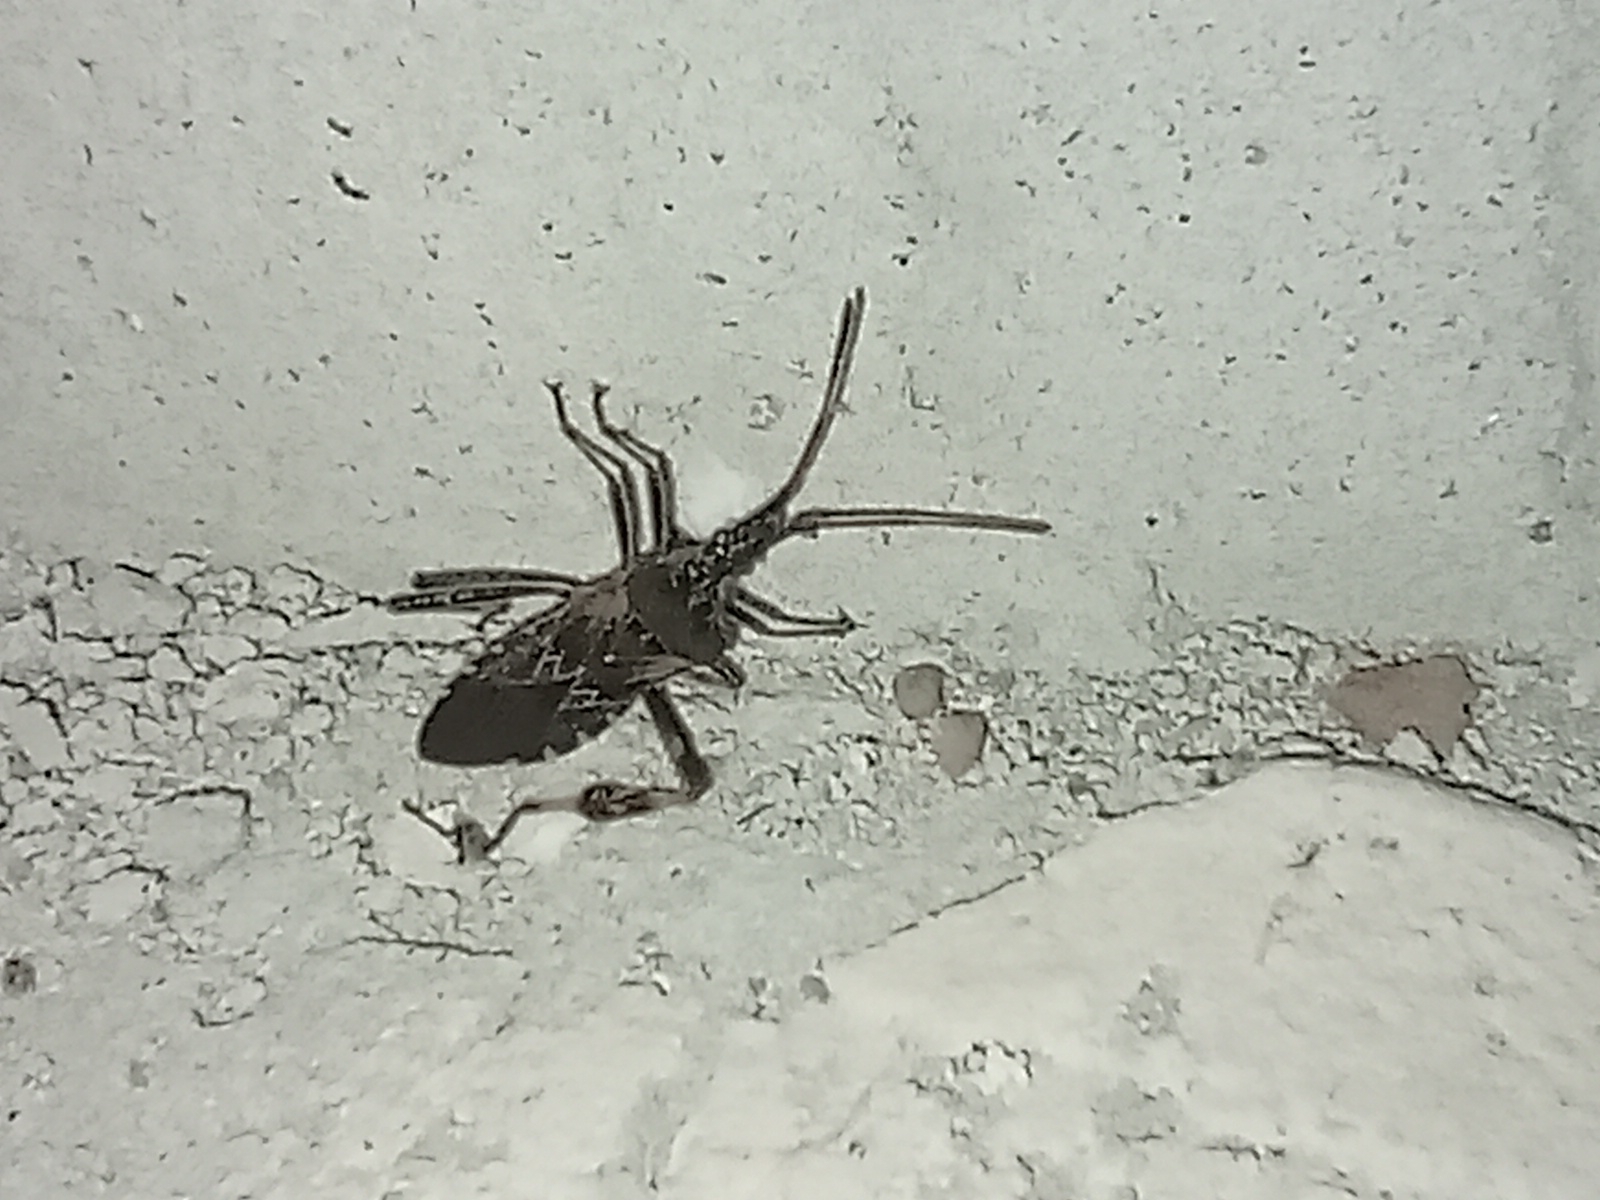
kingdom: Animalia
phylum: Arthropoda
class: Insecta
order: Hemiptera
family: Coreidae
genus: Leptoglossus
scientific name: Leptoglossus occidentalis
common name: Western conifer-seed bug
